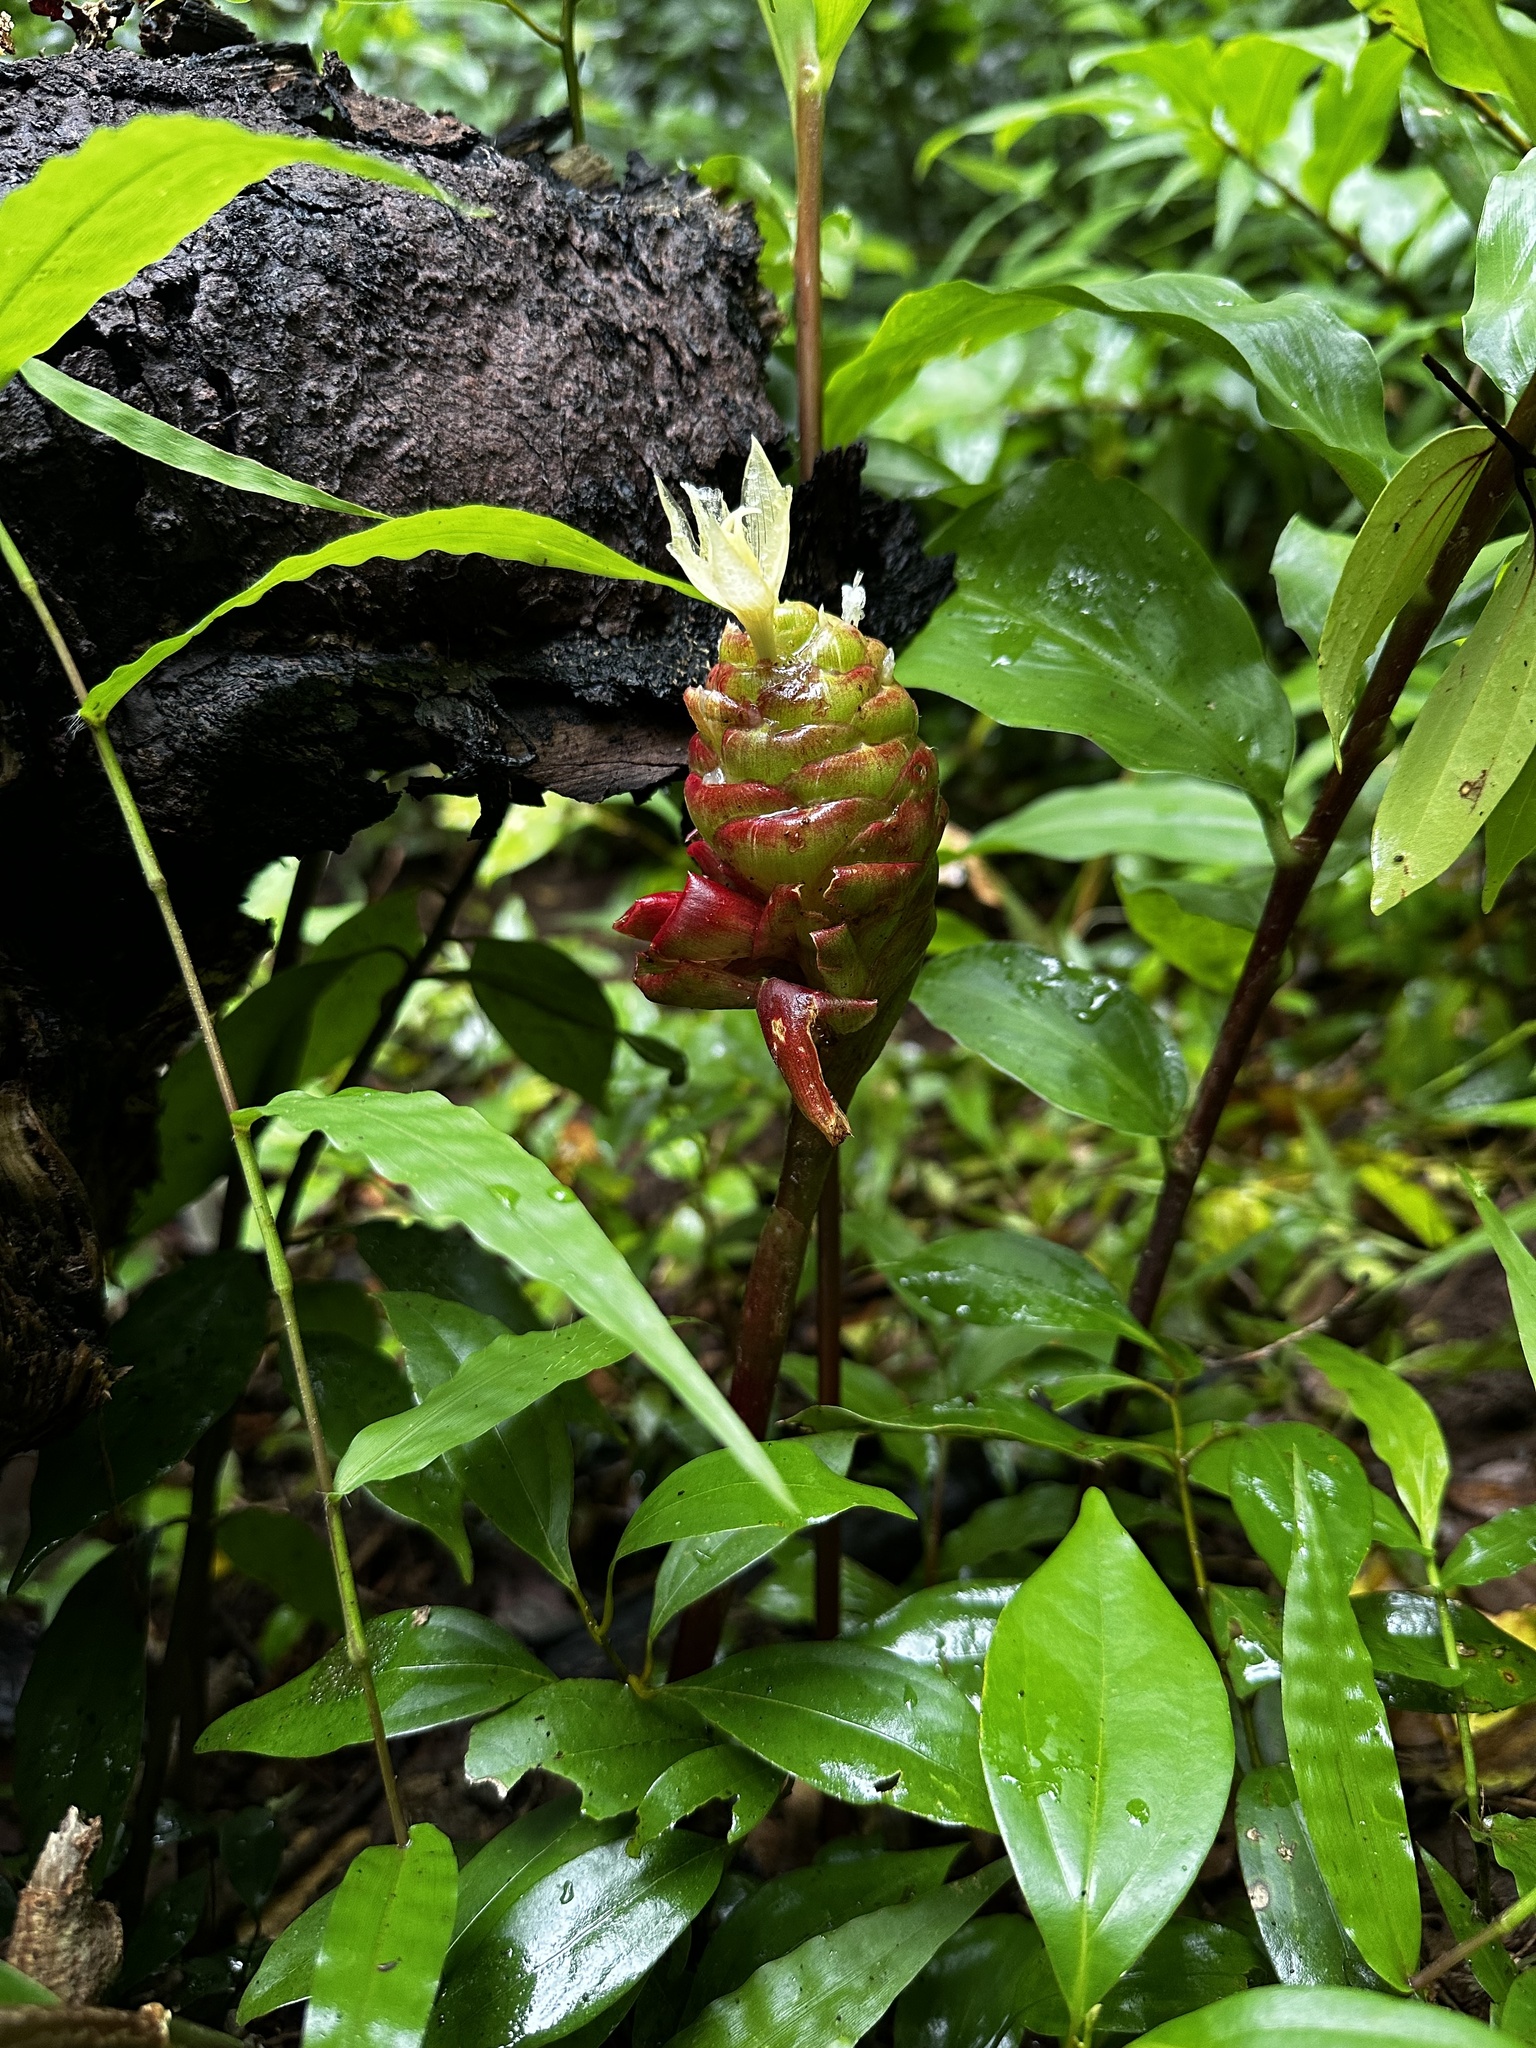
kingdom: Plantae
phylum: Tracheophyta
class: Liliopsida
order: Zingiberales
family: Zingiberaceae
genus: Zingiber
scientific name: Zingiber zerumbet
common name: Bitter ginger
